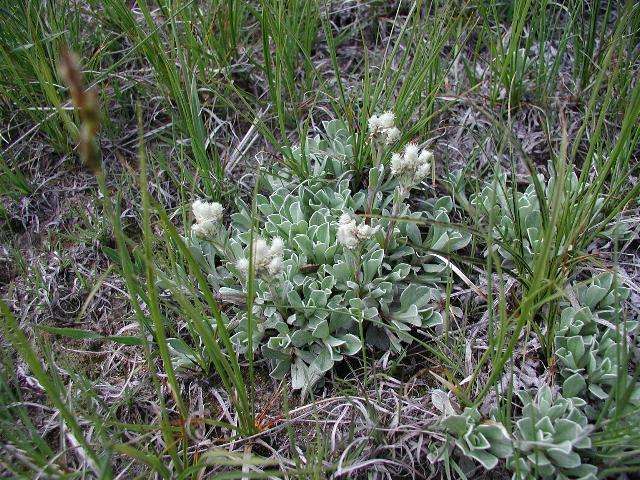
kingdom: Plantae
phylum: Tracheophyta
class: Magnoliopsida
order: Asterales
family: Asteraceae
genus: Antennaria
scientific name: Antennaria parvifolia
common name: Nuttall's pussytoes
